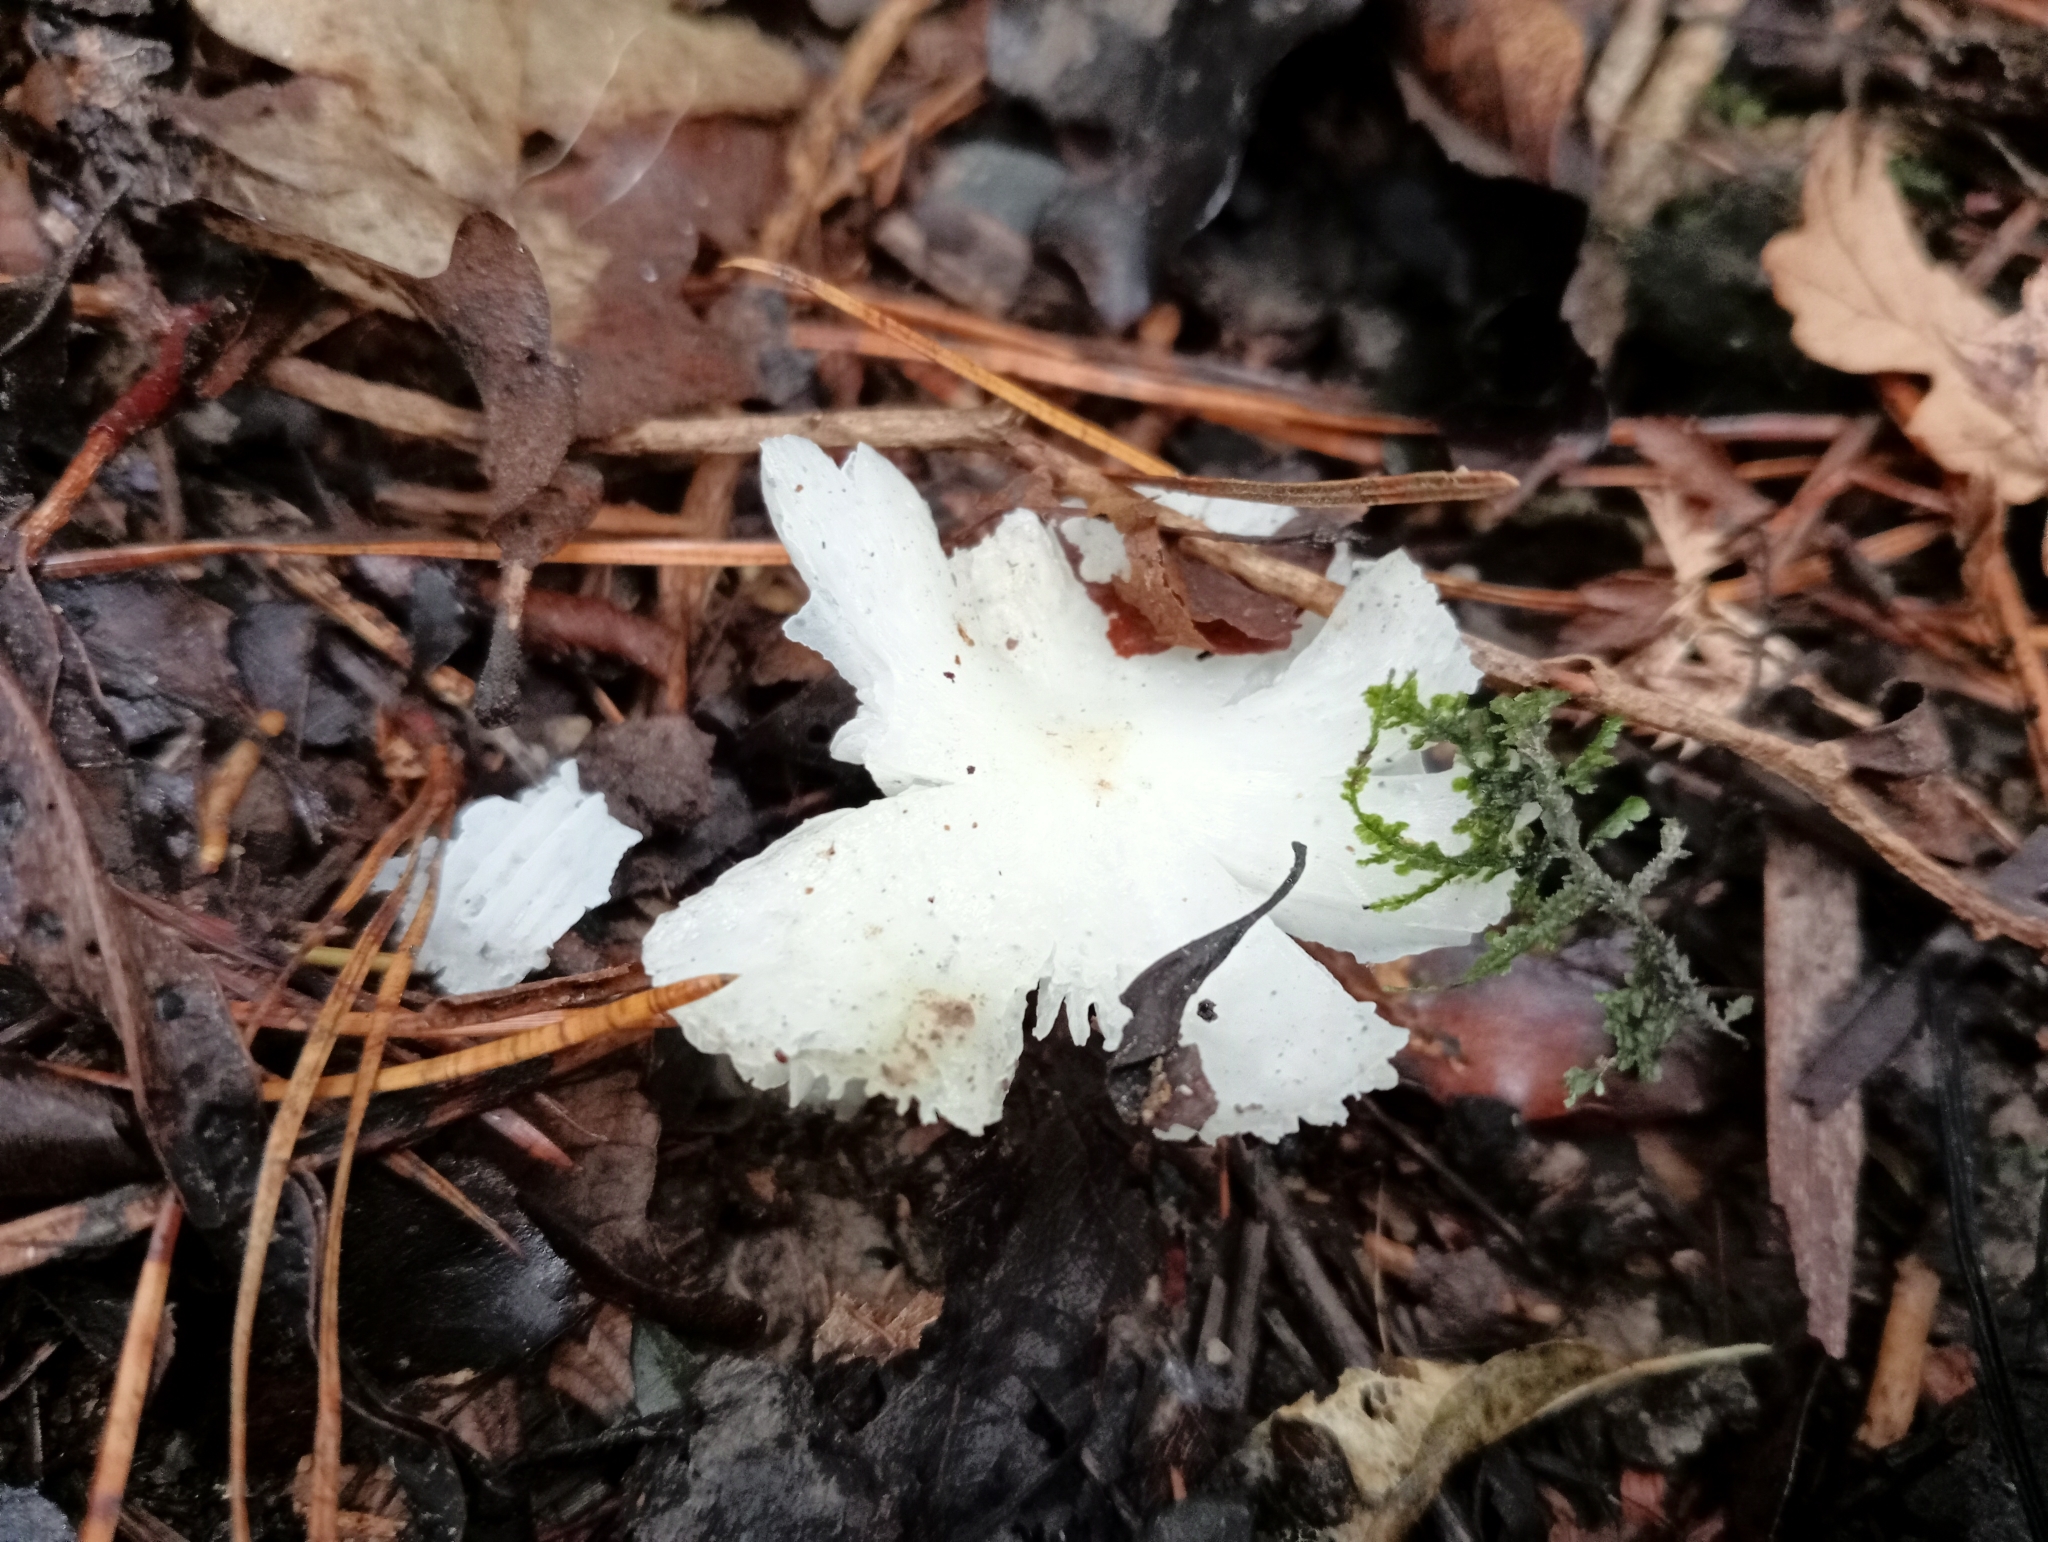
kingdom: Fungi
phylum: Basidiomycota
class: Agaricomycetes
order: Agaricales
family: Hygrophoraceae
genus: Humidicutis
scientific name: Humidicutis mavis
